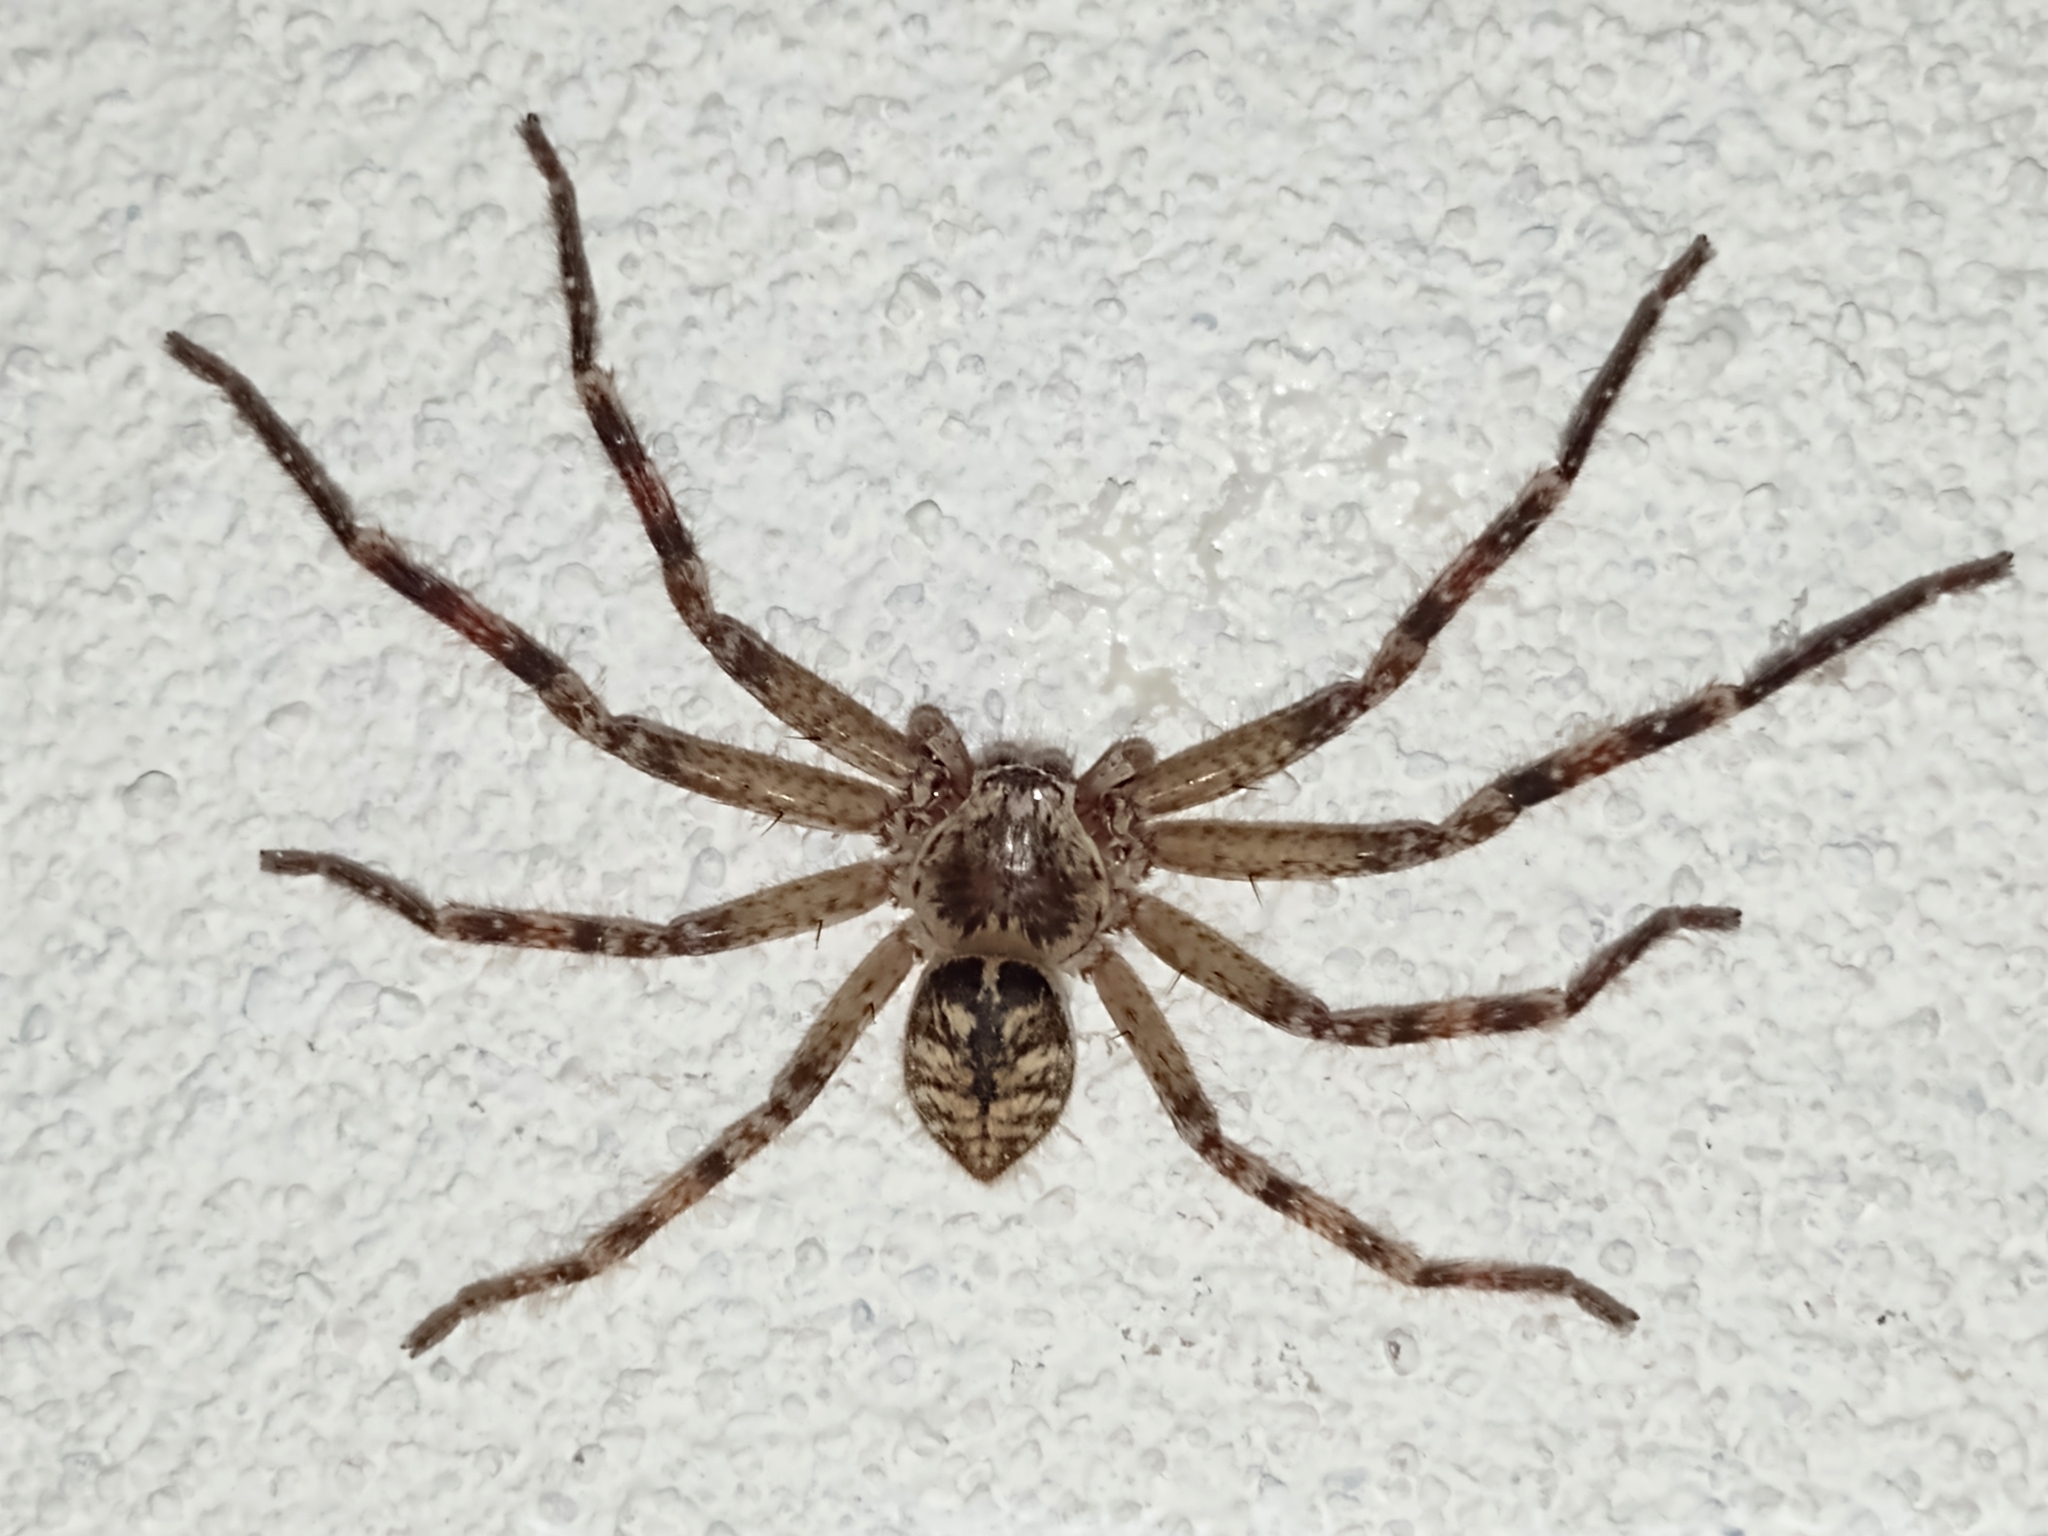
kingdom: Animalia
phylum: Arthropoda
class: Arachnida
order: Araneae
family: Sparassidae
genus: Polybetes
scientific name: Polybetes rapidus
